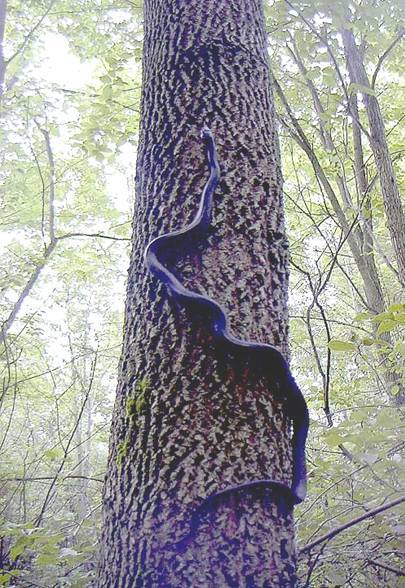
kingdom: Animalia
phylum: Chordata
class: Squamata
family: Colubridae
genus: Pantherophis
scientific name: Pantherophis spiloides
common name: Gray rat snake
